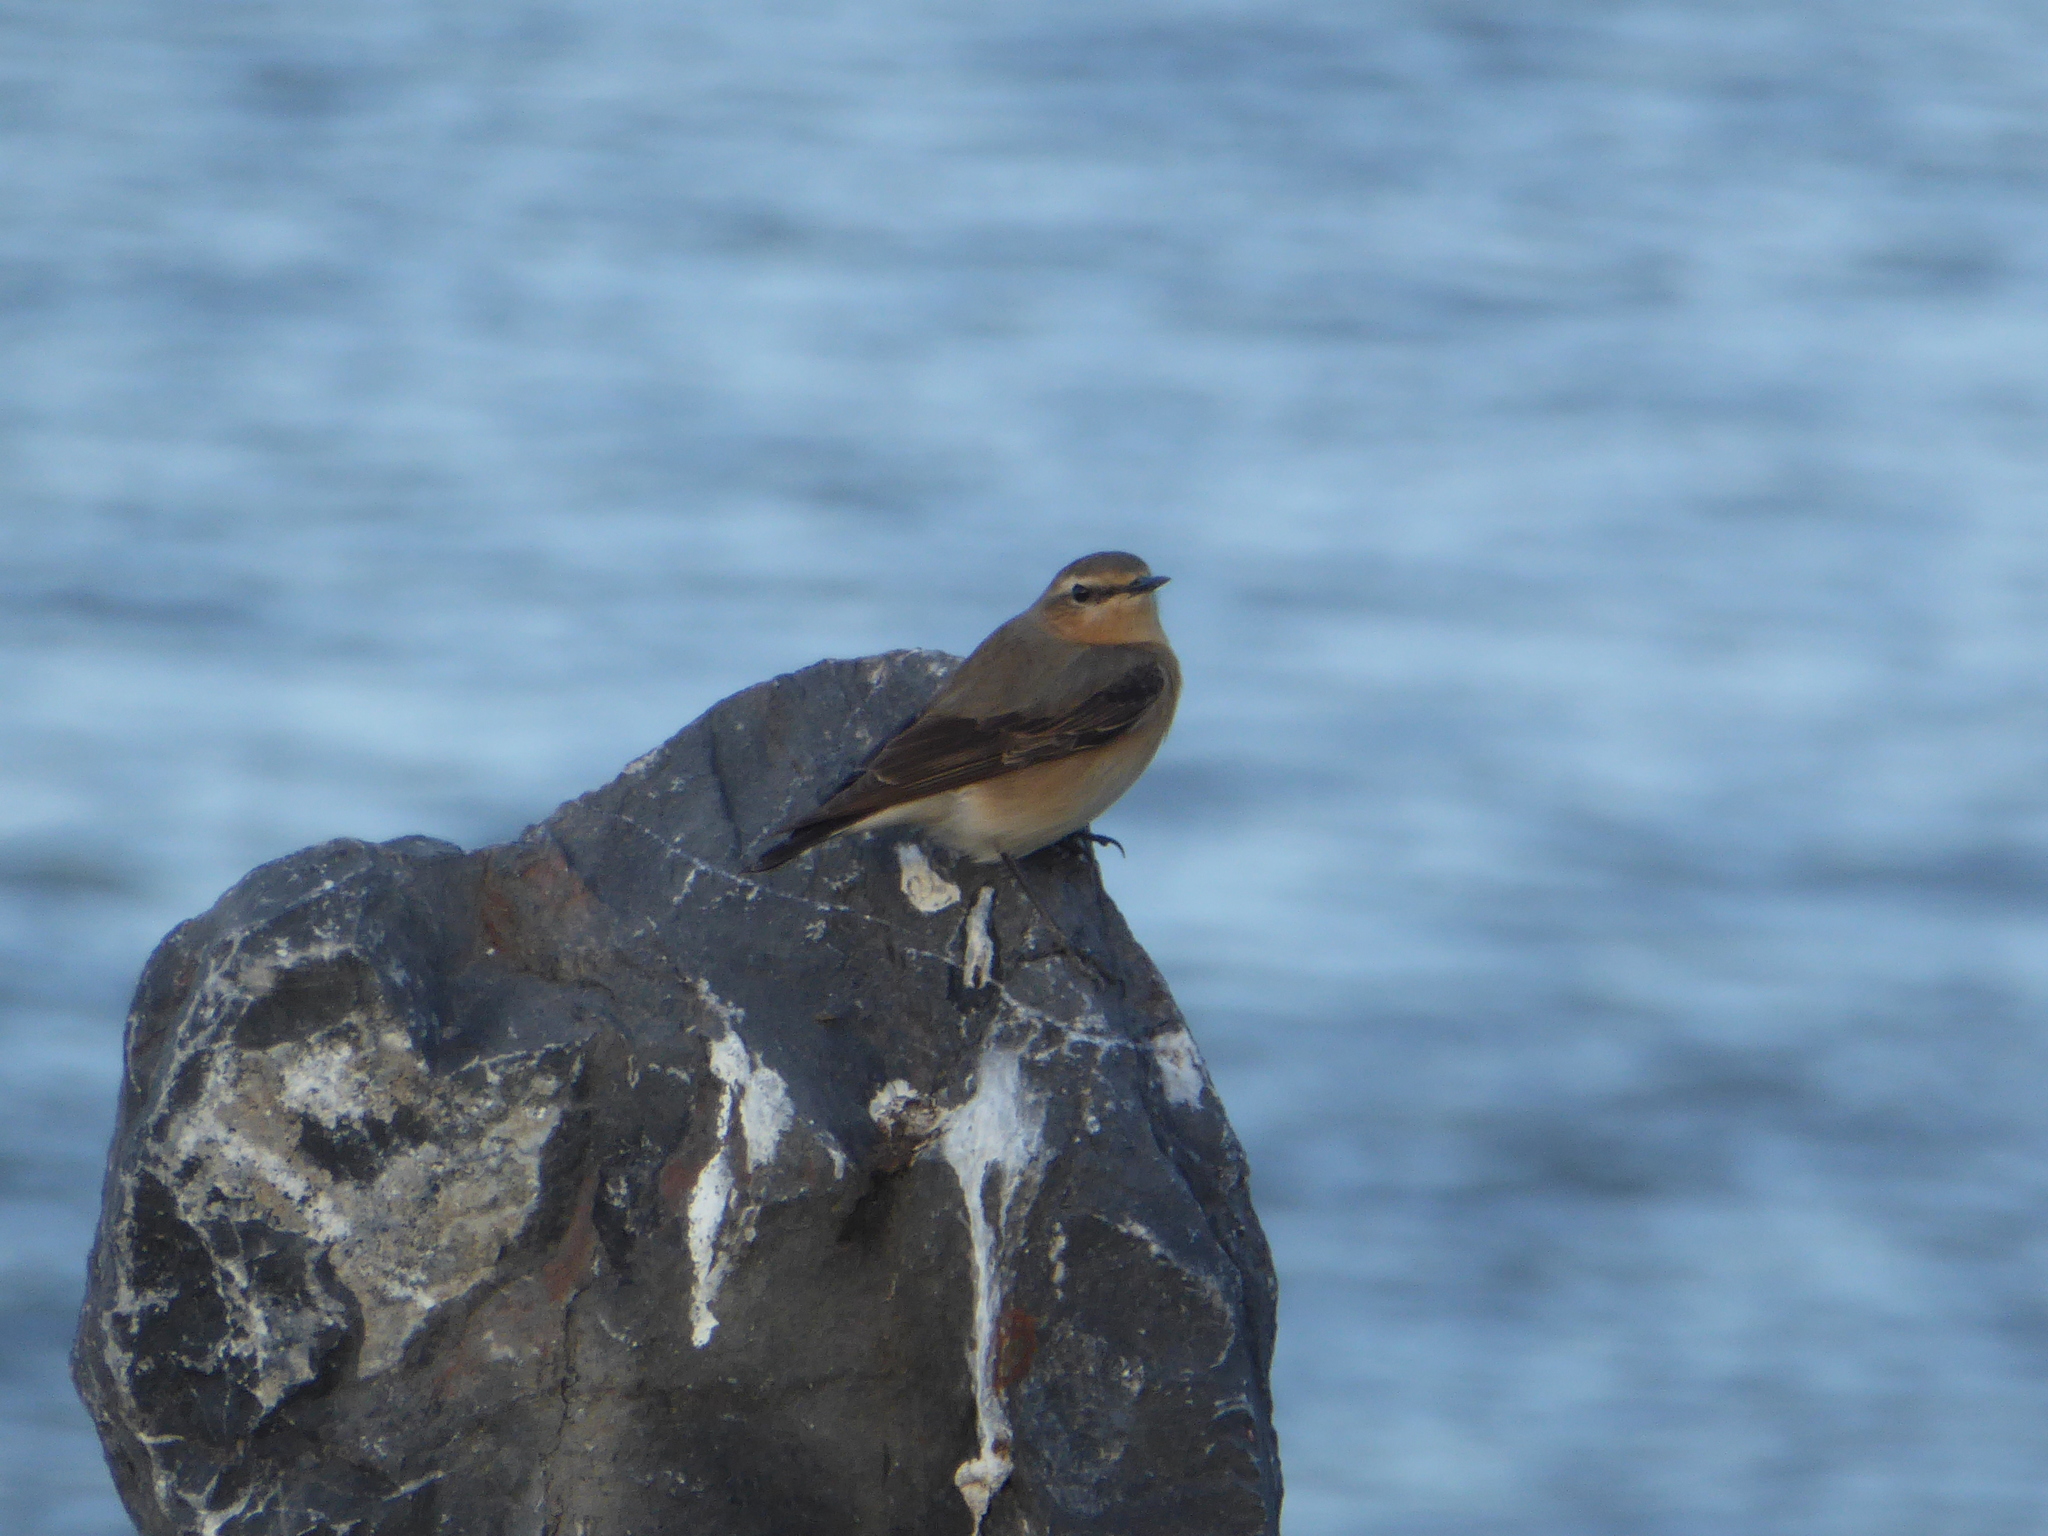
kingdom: Animalia
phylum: Chordata
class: Aves
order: Passeriformes
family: Muscicapidae
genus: Oenanthe
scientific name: Oenanthe oenanthe
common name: Northern wheatear
